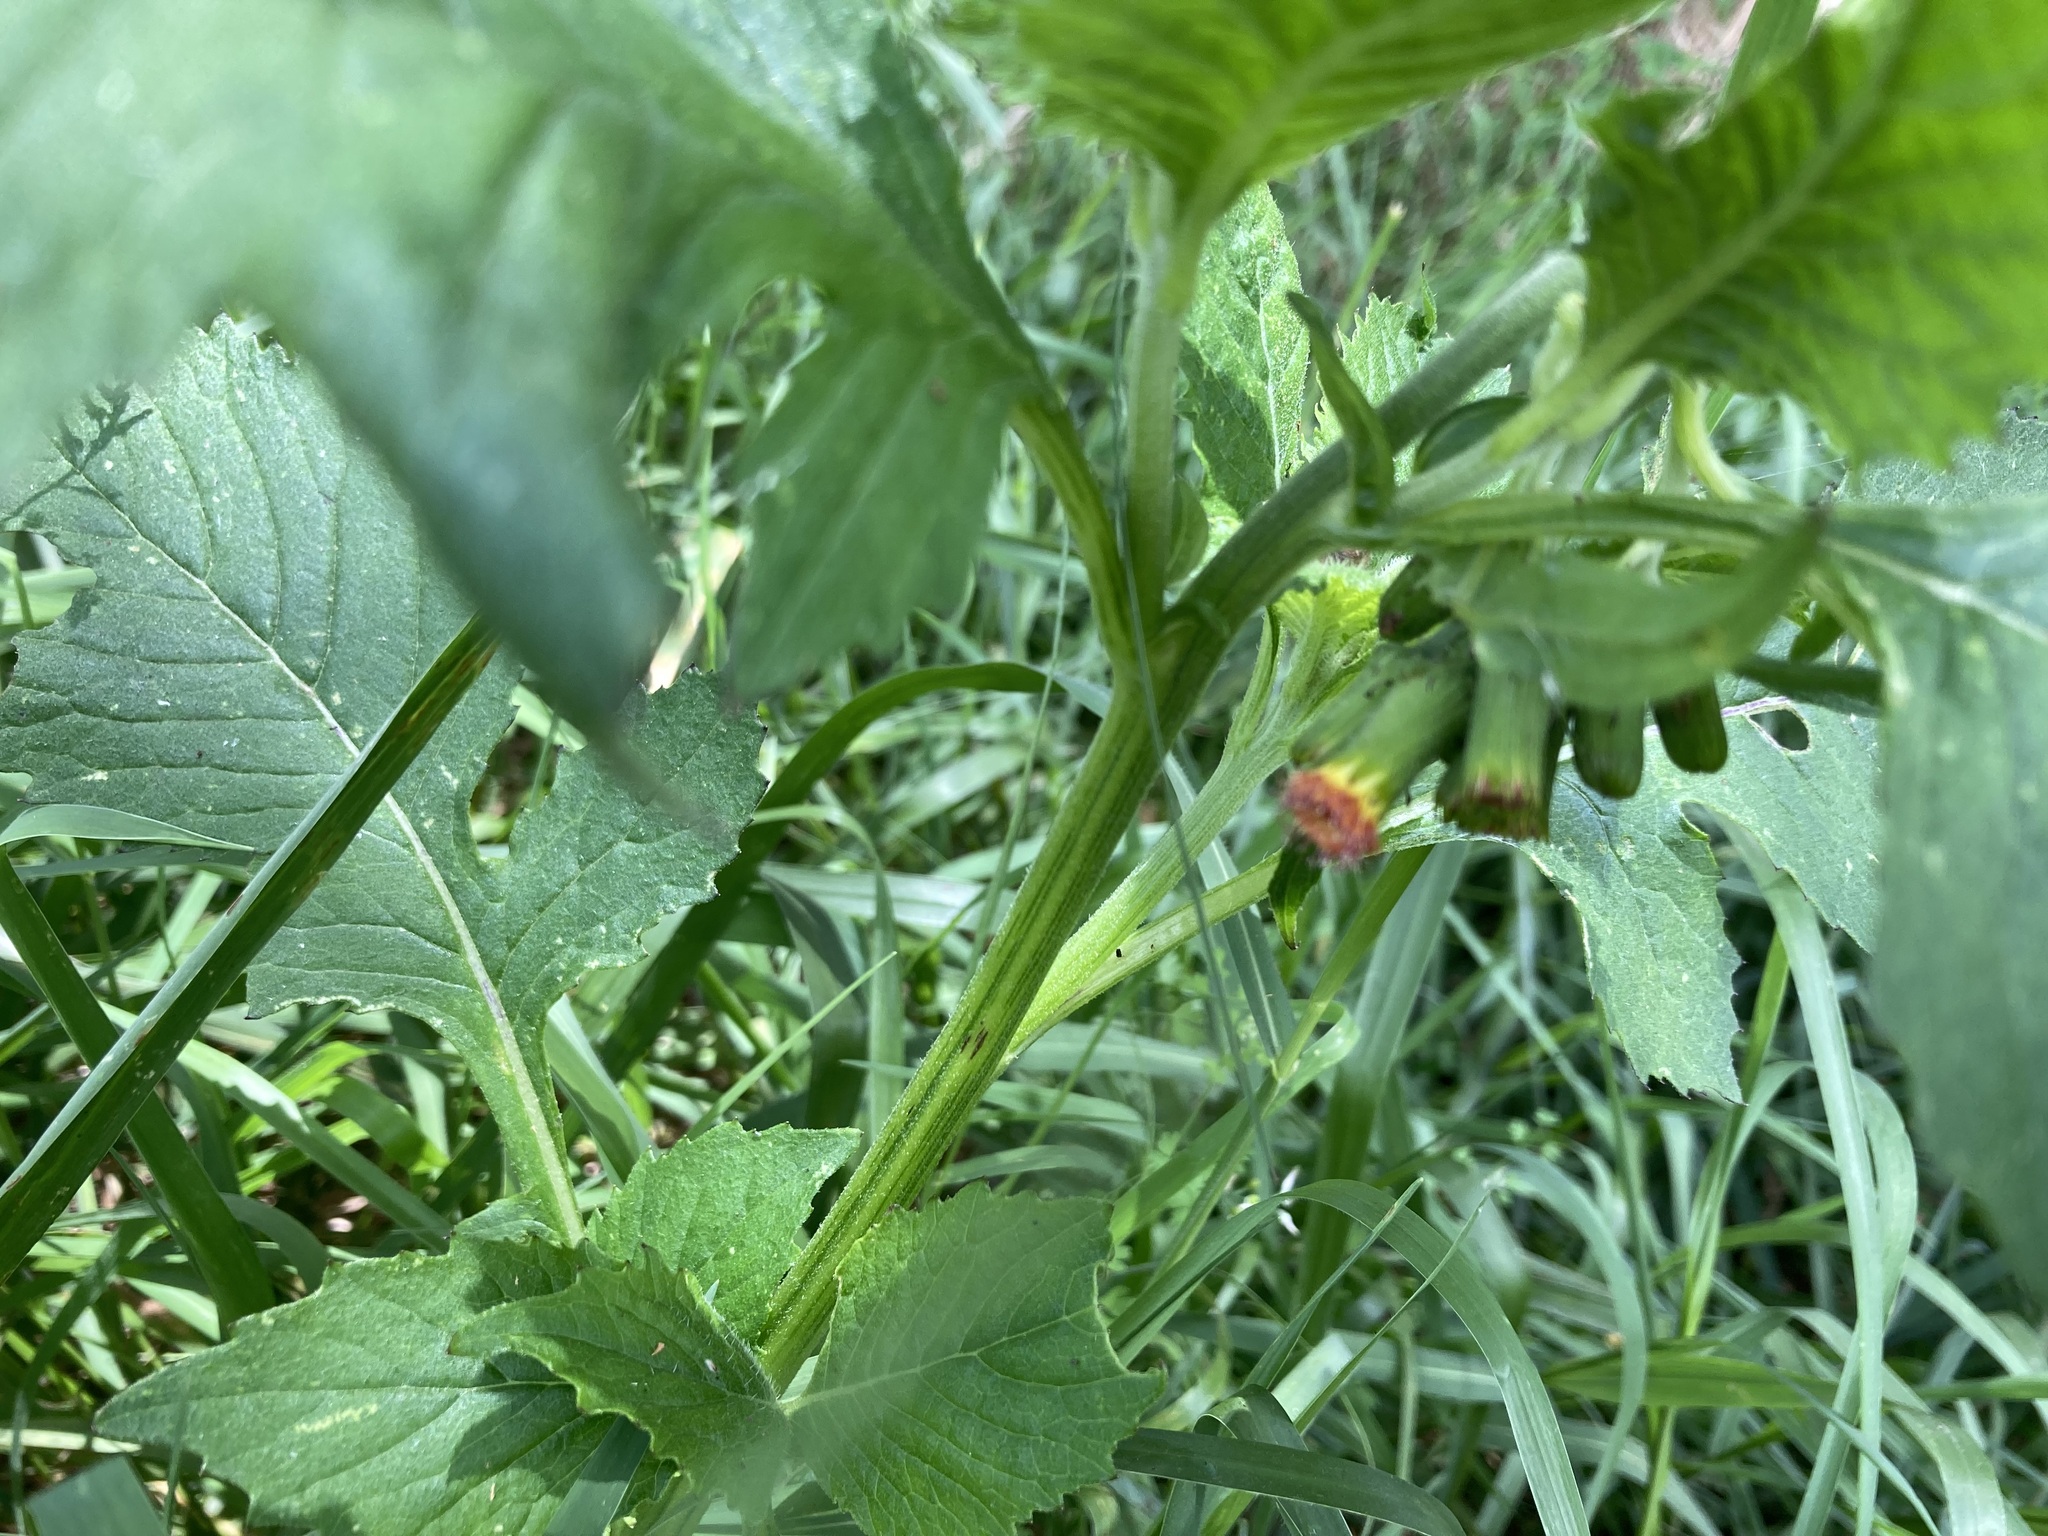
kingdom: Plantae
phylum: Tracheophyta
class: Magnoliopsida
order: Asterales
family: Asteraceae
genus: Crassocephalum
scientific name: Crassocephalum crepidioides
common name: Redflower ragleaf
